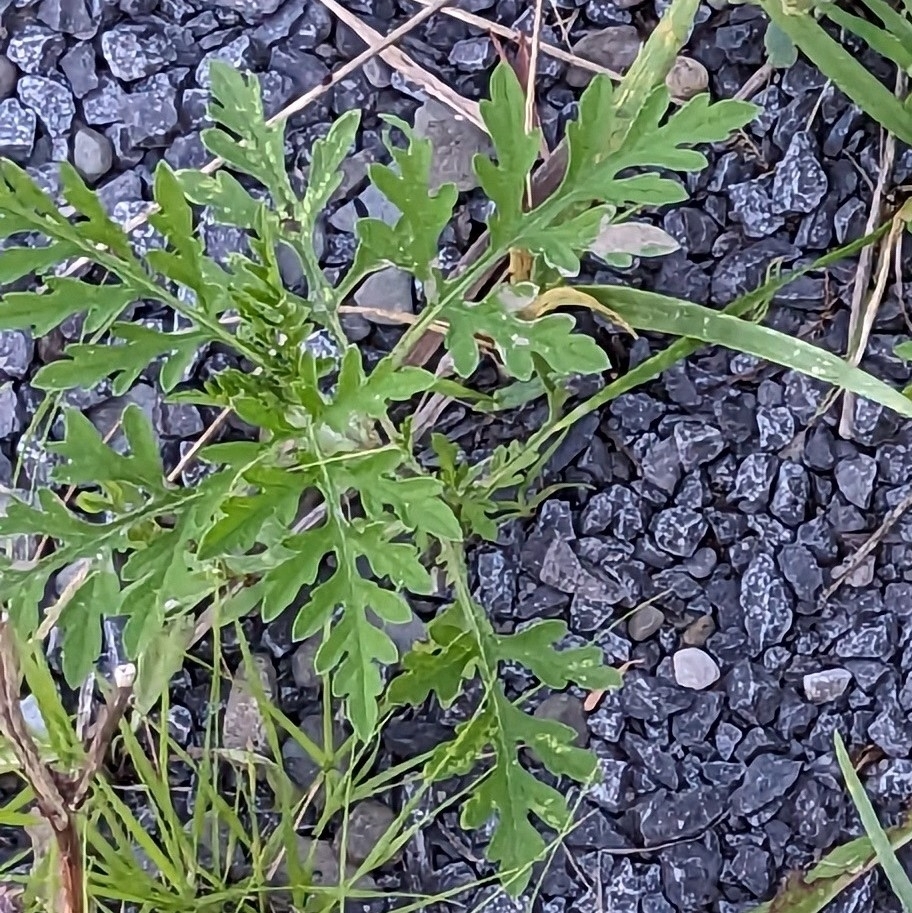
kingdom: Plantae
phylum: Tracheophyta
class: Magnoliopsida
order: Asterales
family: Asteraceae
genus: Ambrosia
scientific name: Ambrosia artemisiifolia
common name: Annual ragweed
